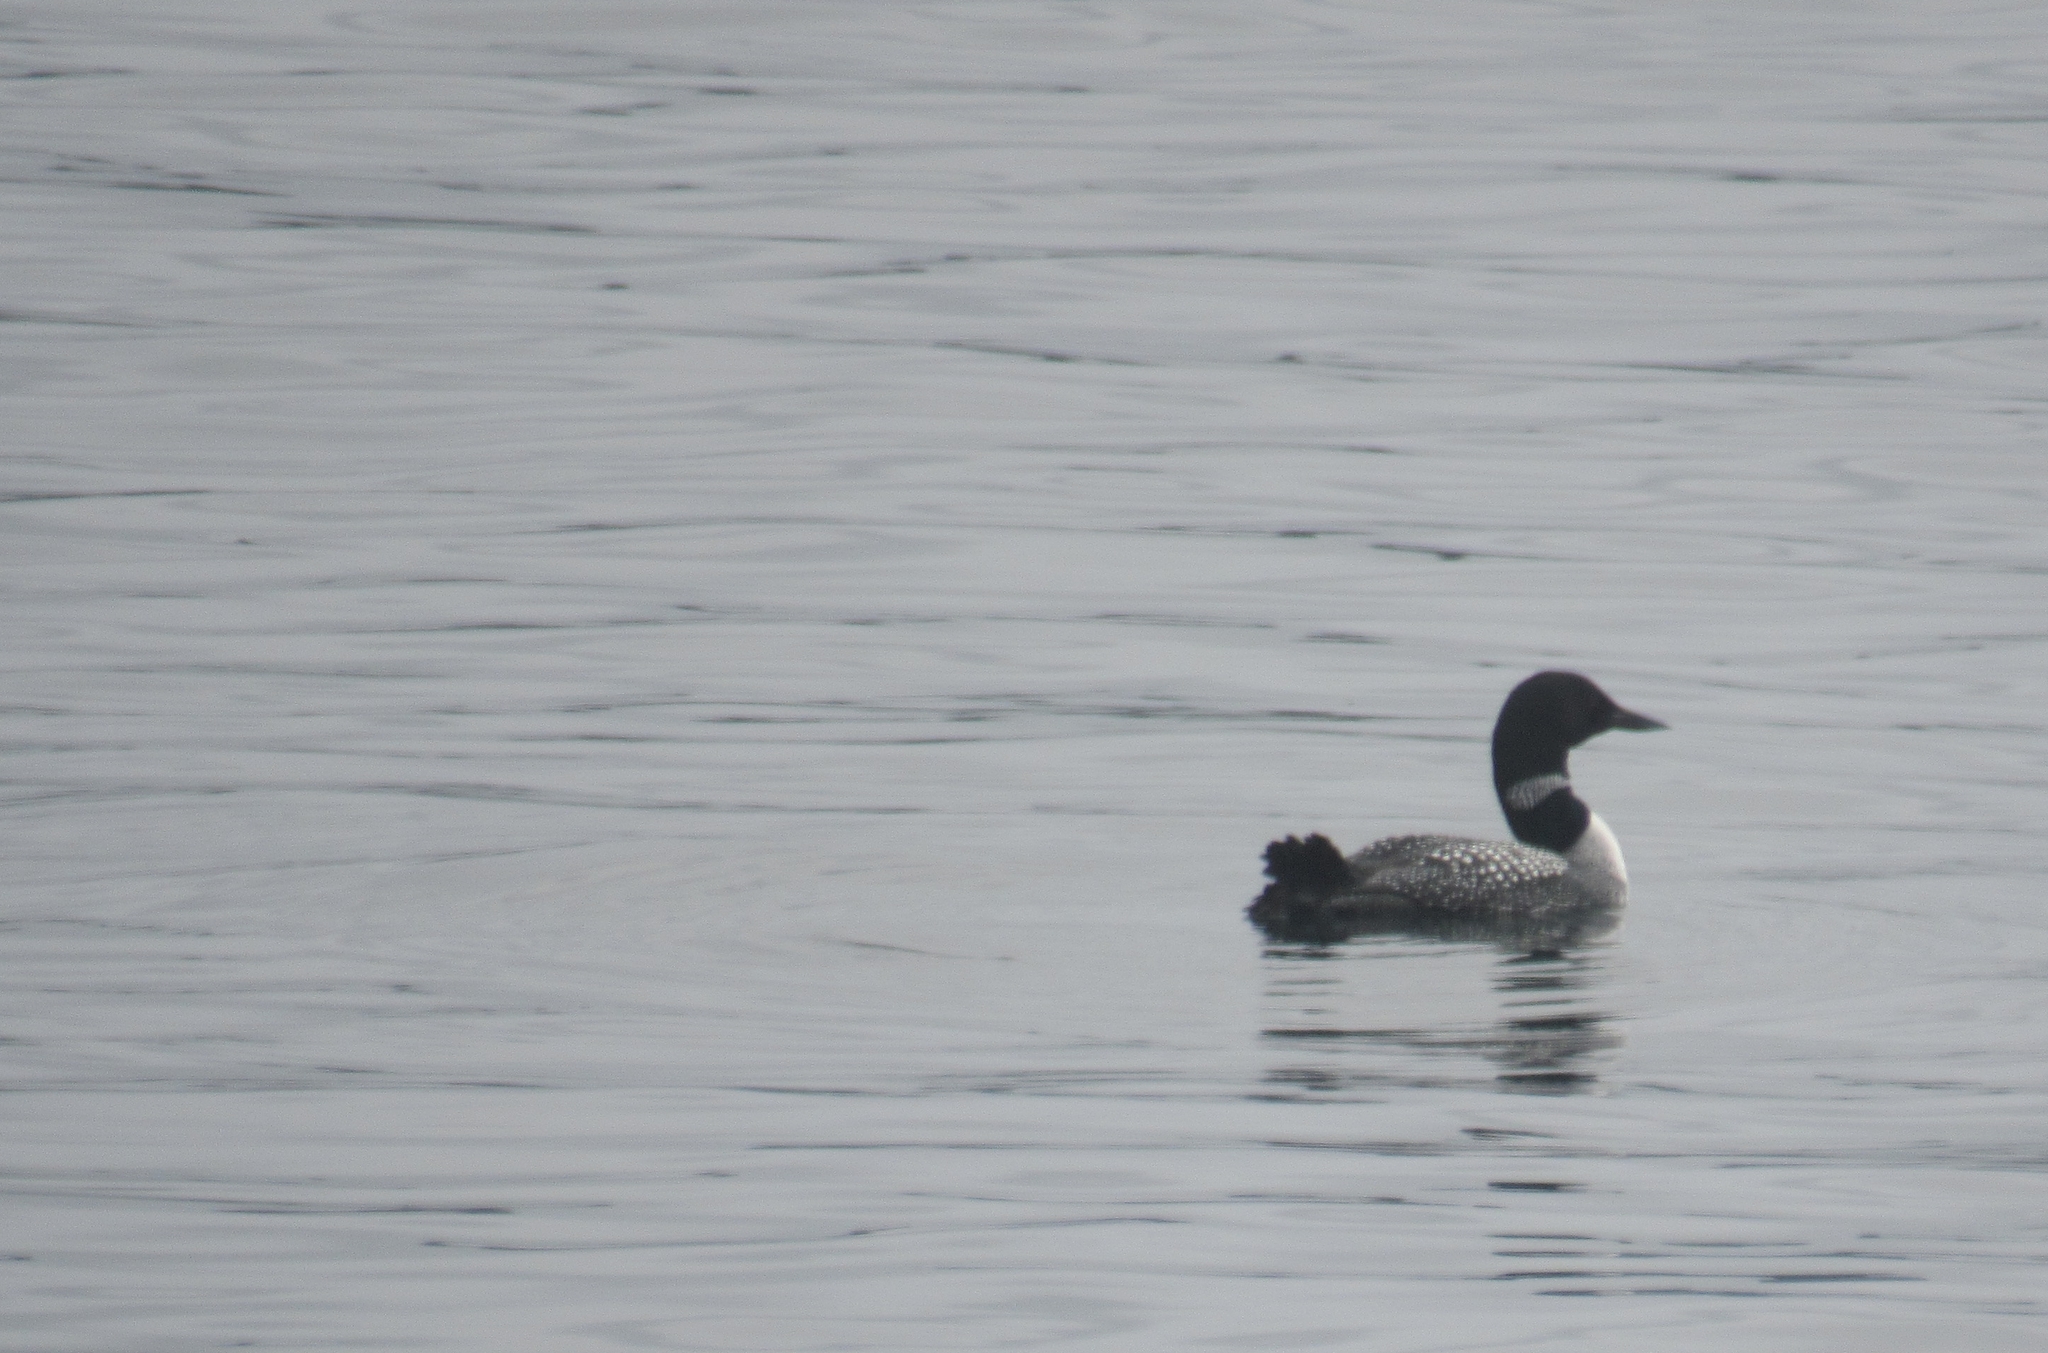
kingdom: Animalia
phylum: Chordata
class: Aves
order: Gaviiformes
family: Gaviidae
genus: Gavia
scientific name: Gavia immer
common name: Common loon
